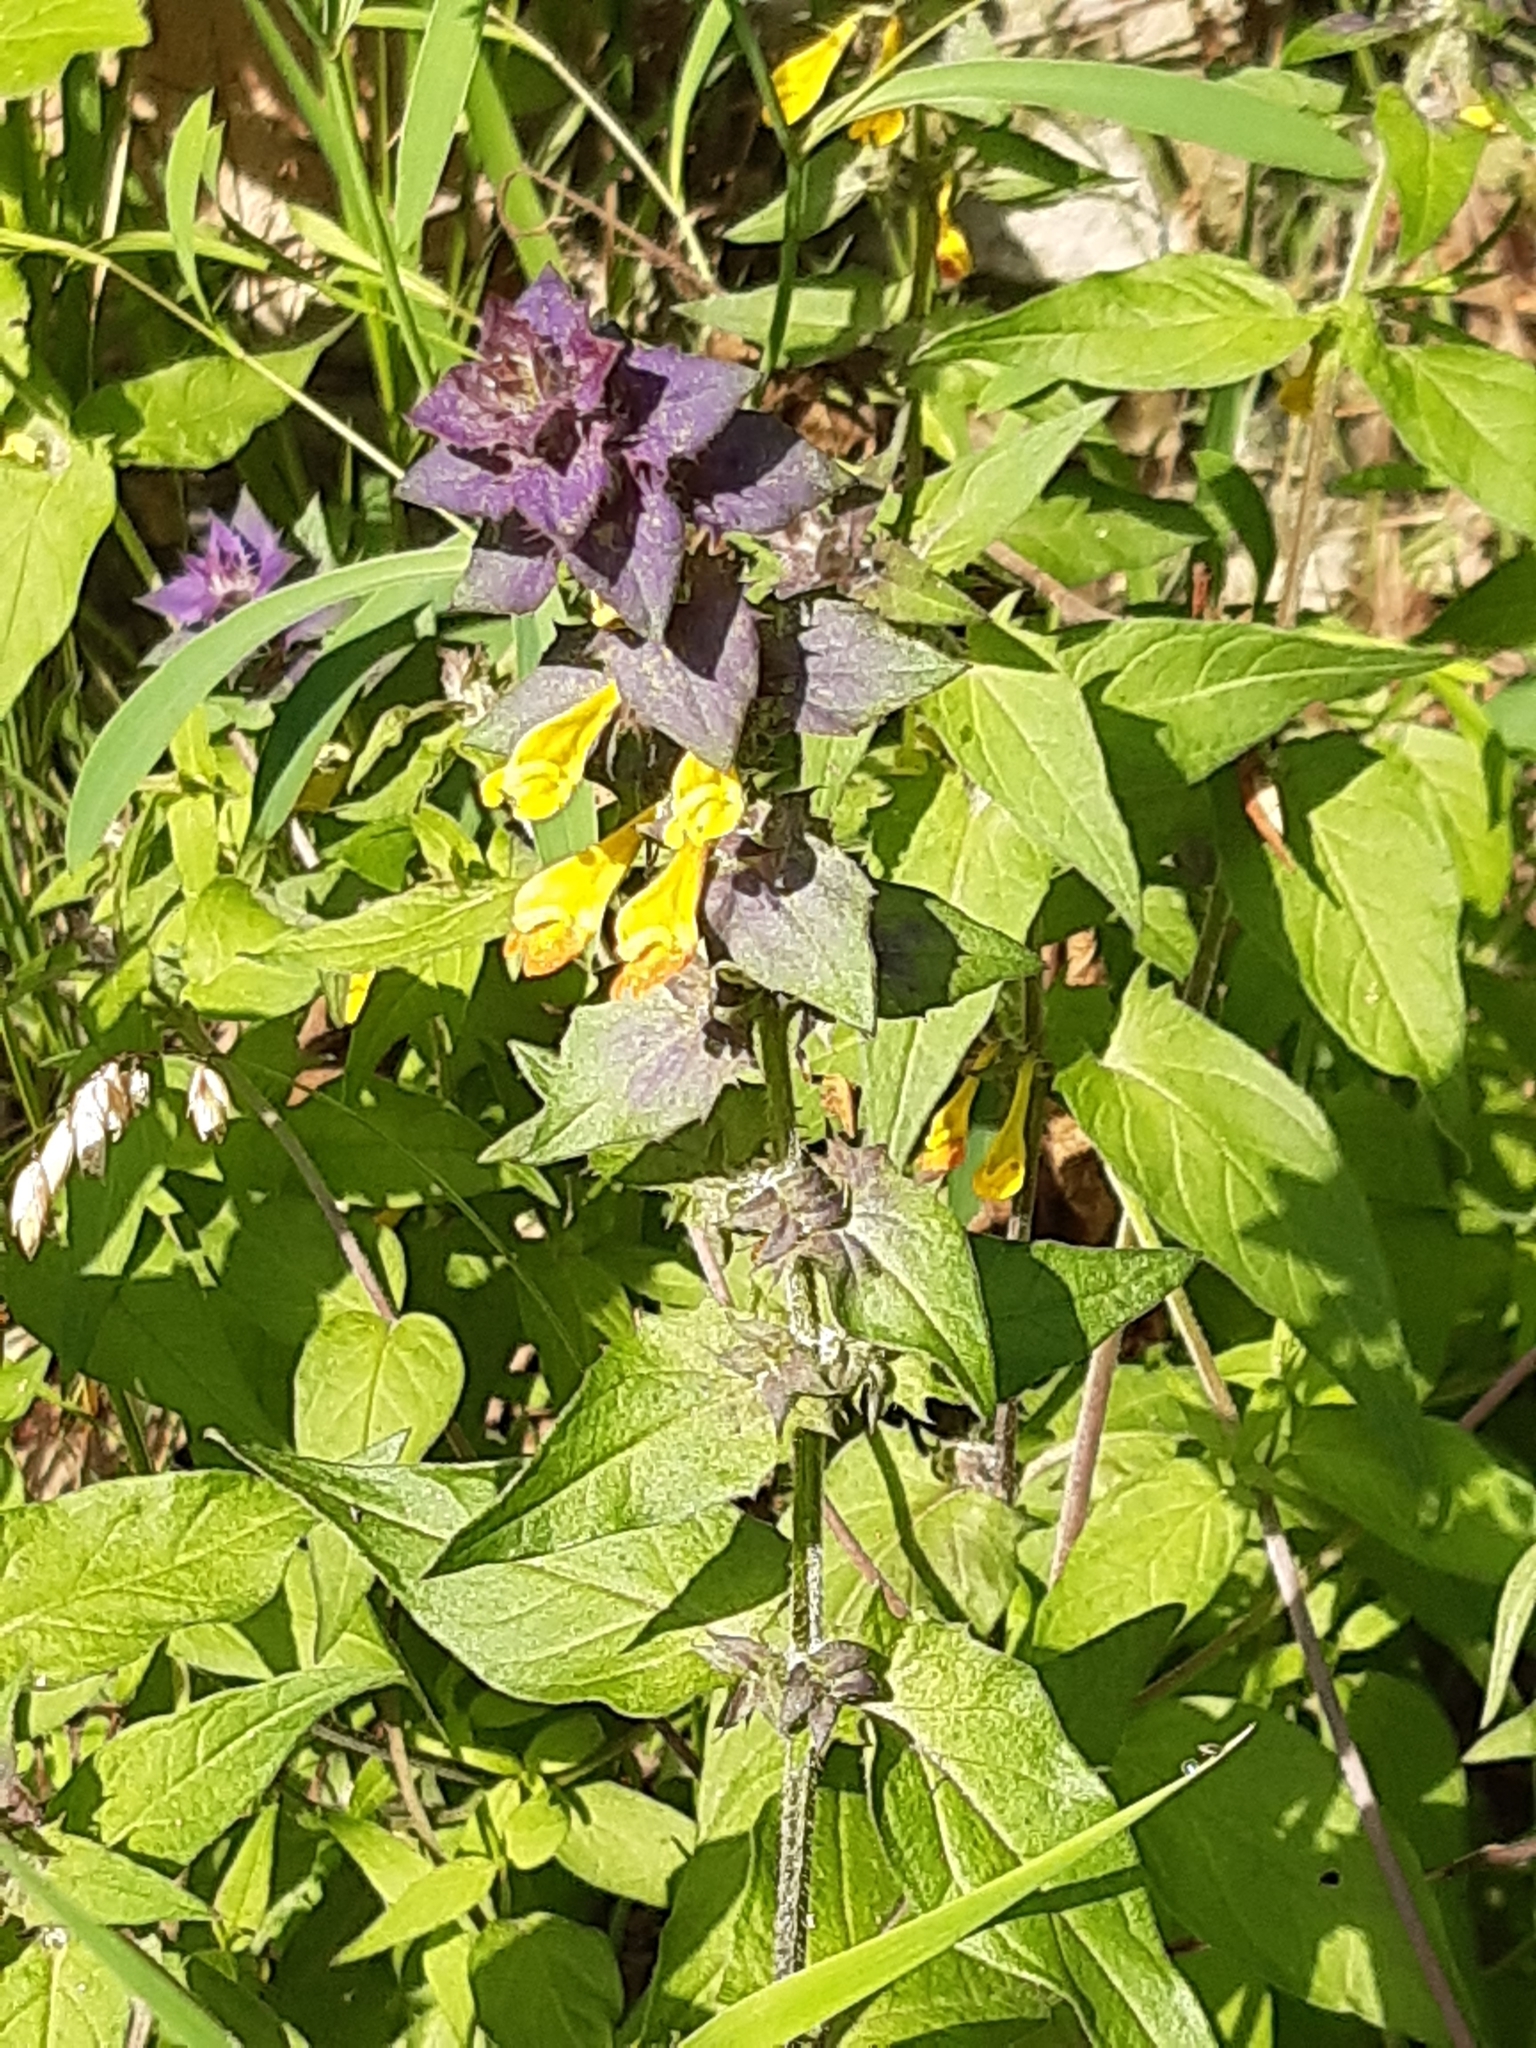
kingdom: Plantae
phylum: Tracheophyta
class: Magnoliopsida
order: Lamiales
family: Orobanchaceae
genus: Melampyrum
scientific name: Melampyrum nemorosum
